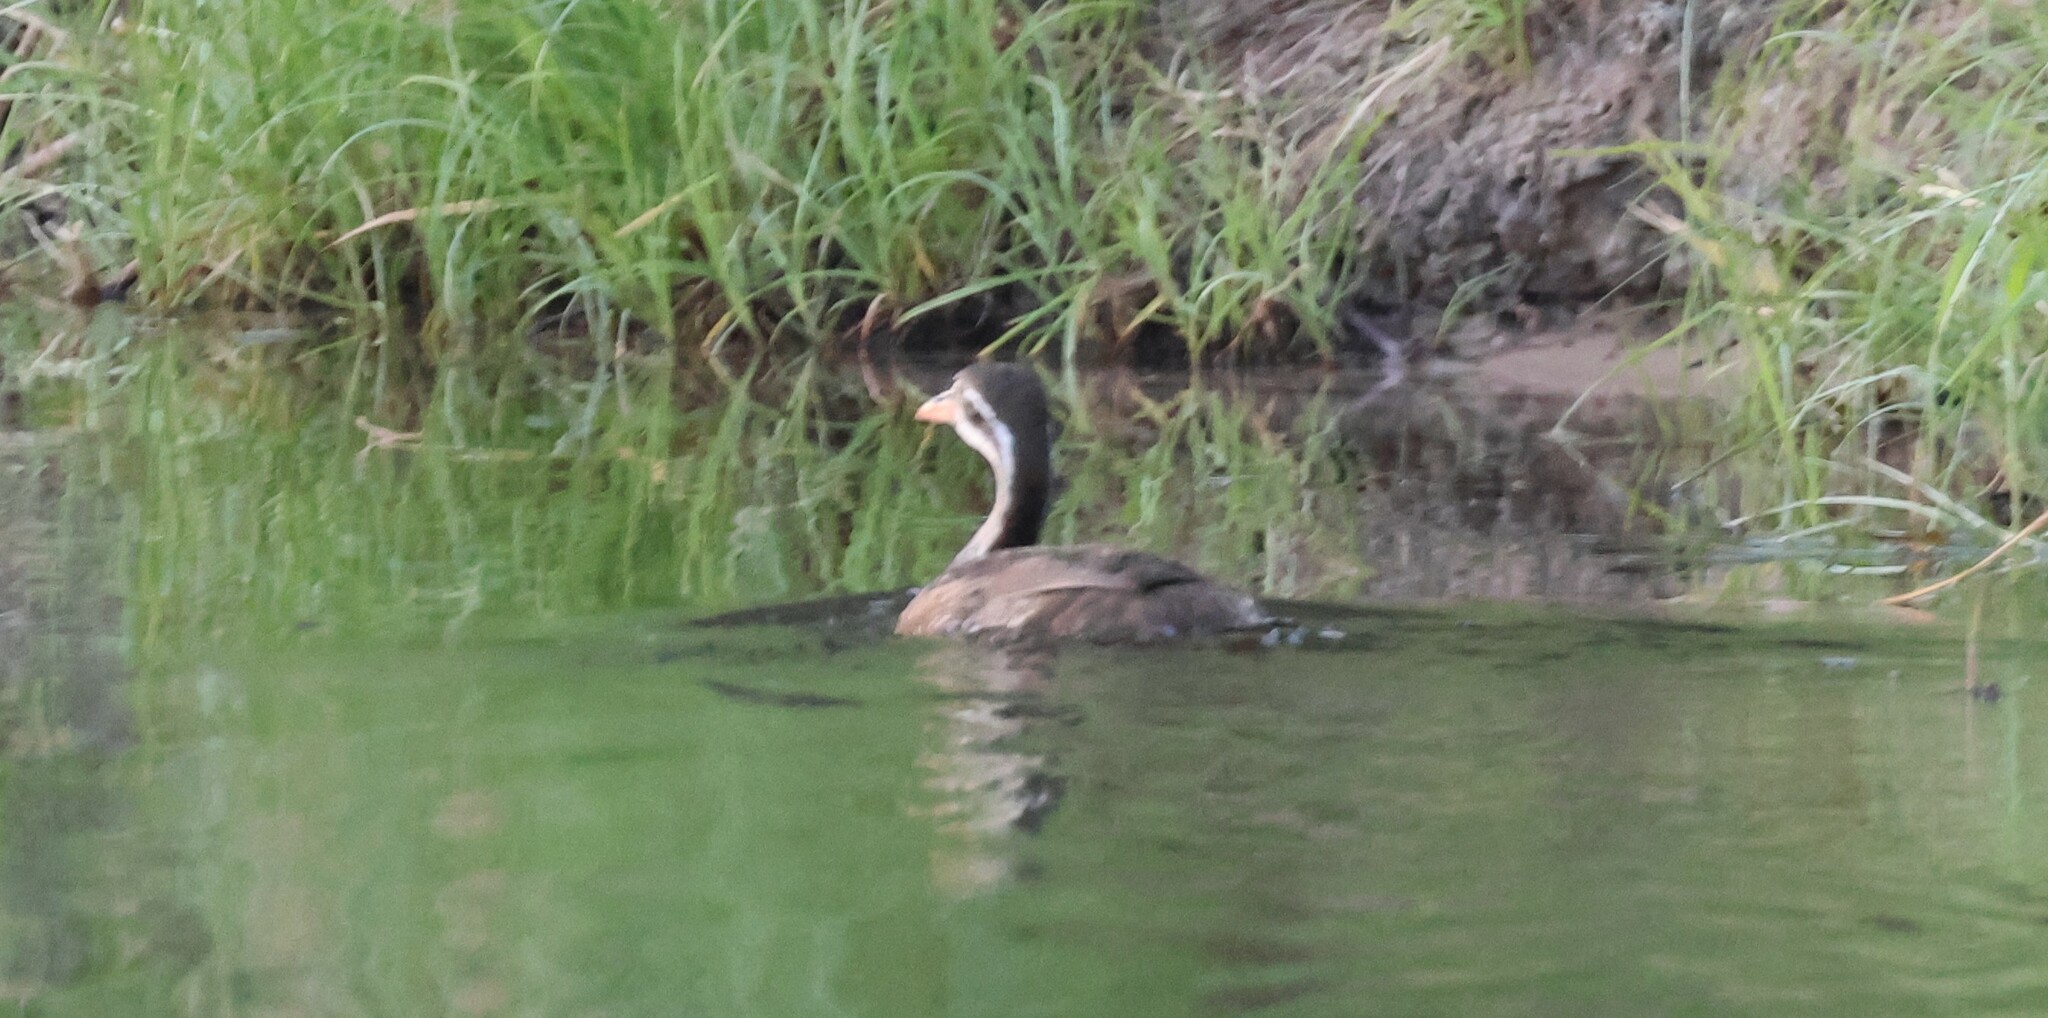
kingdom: Animalia
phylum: Chordata
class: Aves
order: Gruiformes
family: Heliornithidae
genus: Podica
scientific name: Podica senegalensis
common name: African finfoot
